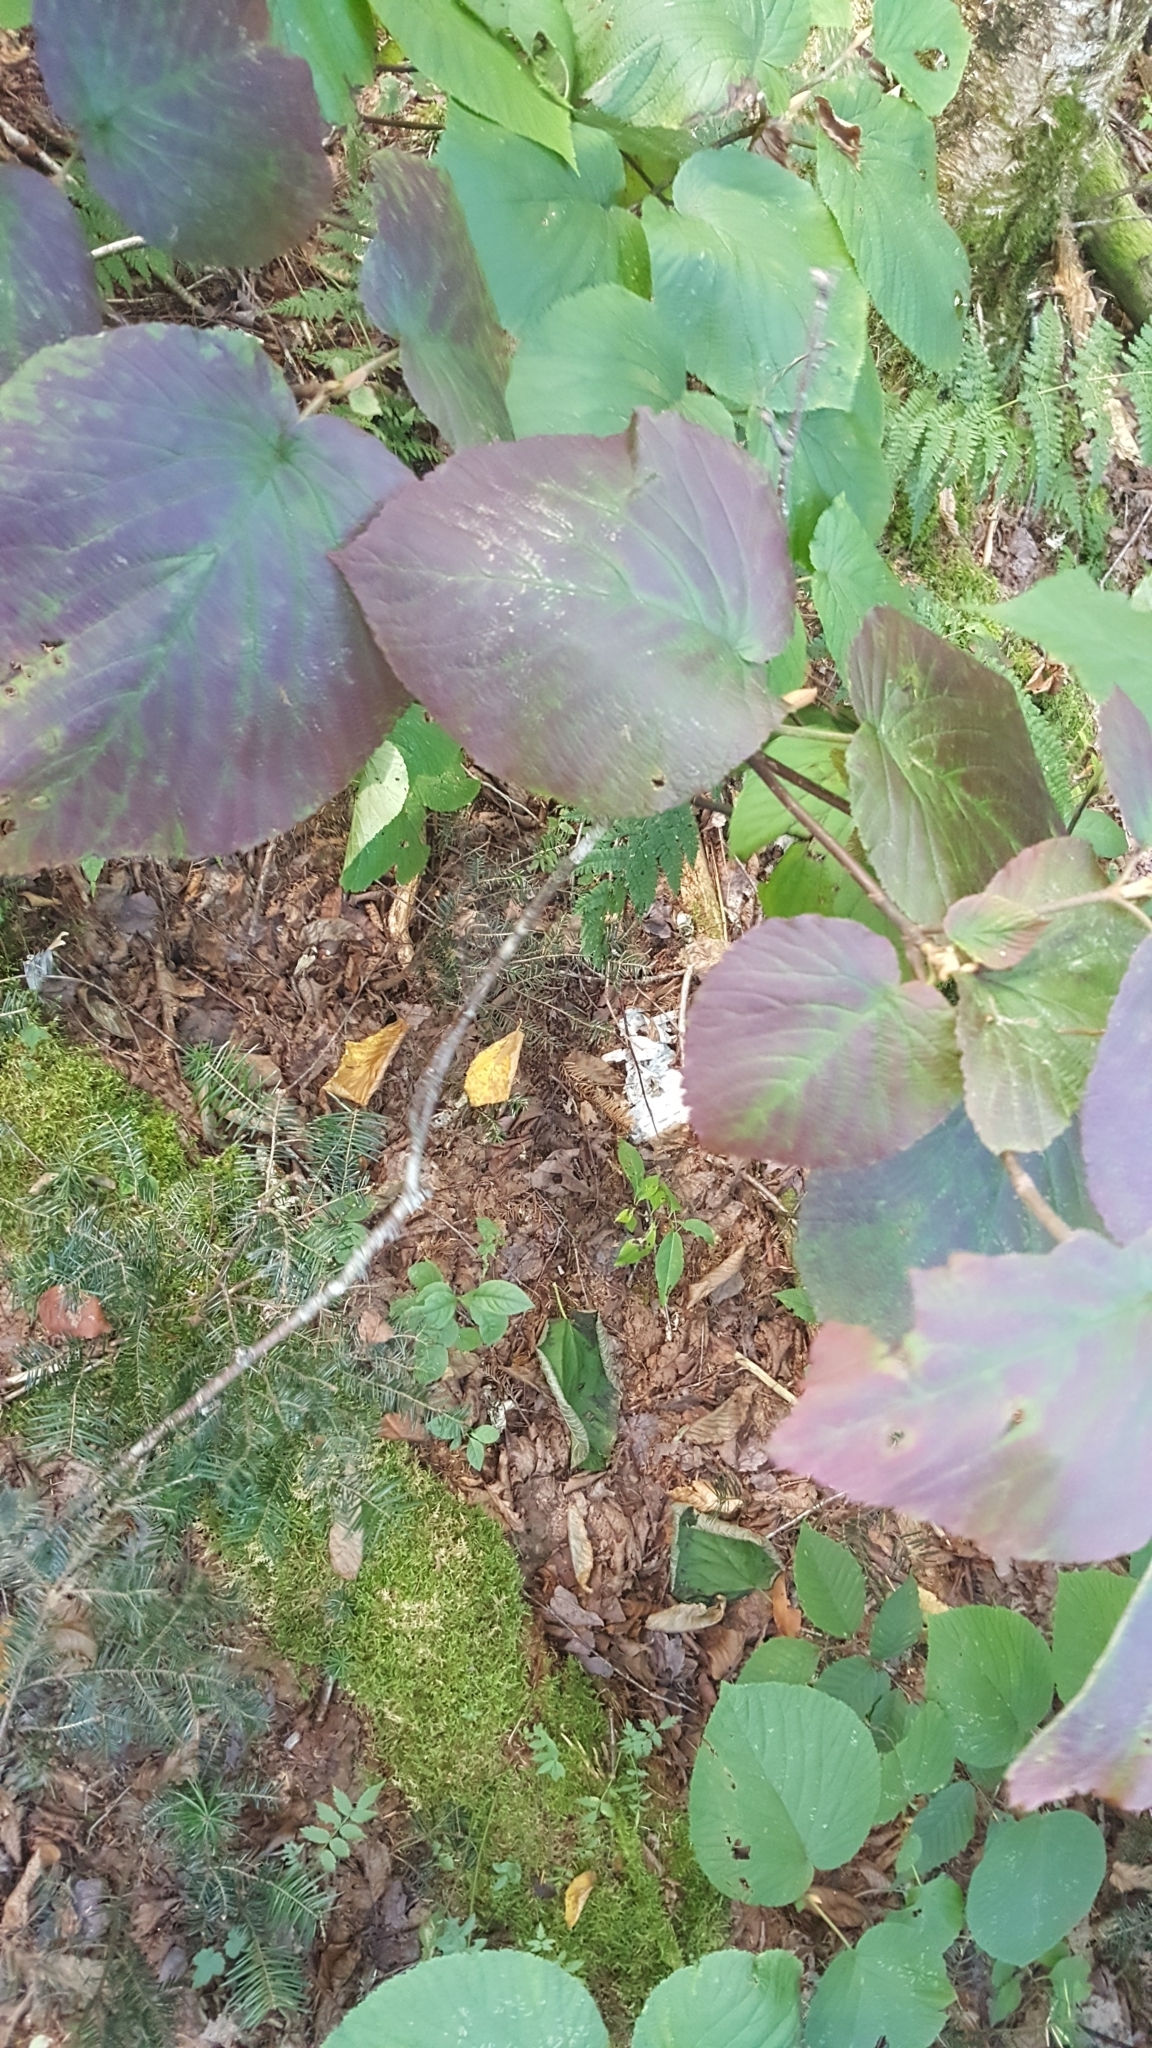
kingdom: Plantae
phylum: Tracheophyta
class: Magnoliopsida
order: Dipsacales
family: Viburnaceae
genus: Viburnum
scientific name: Viburnum lantanoides
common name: Hobblebush
